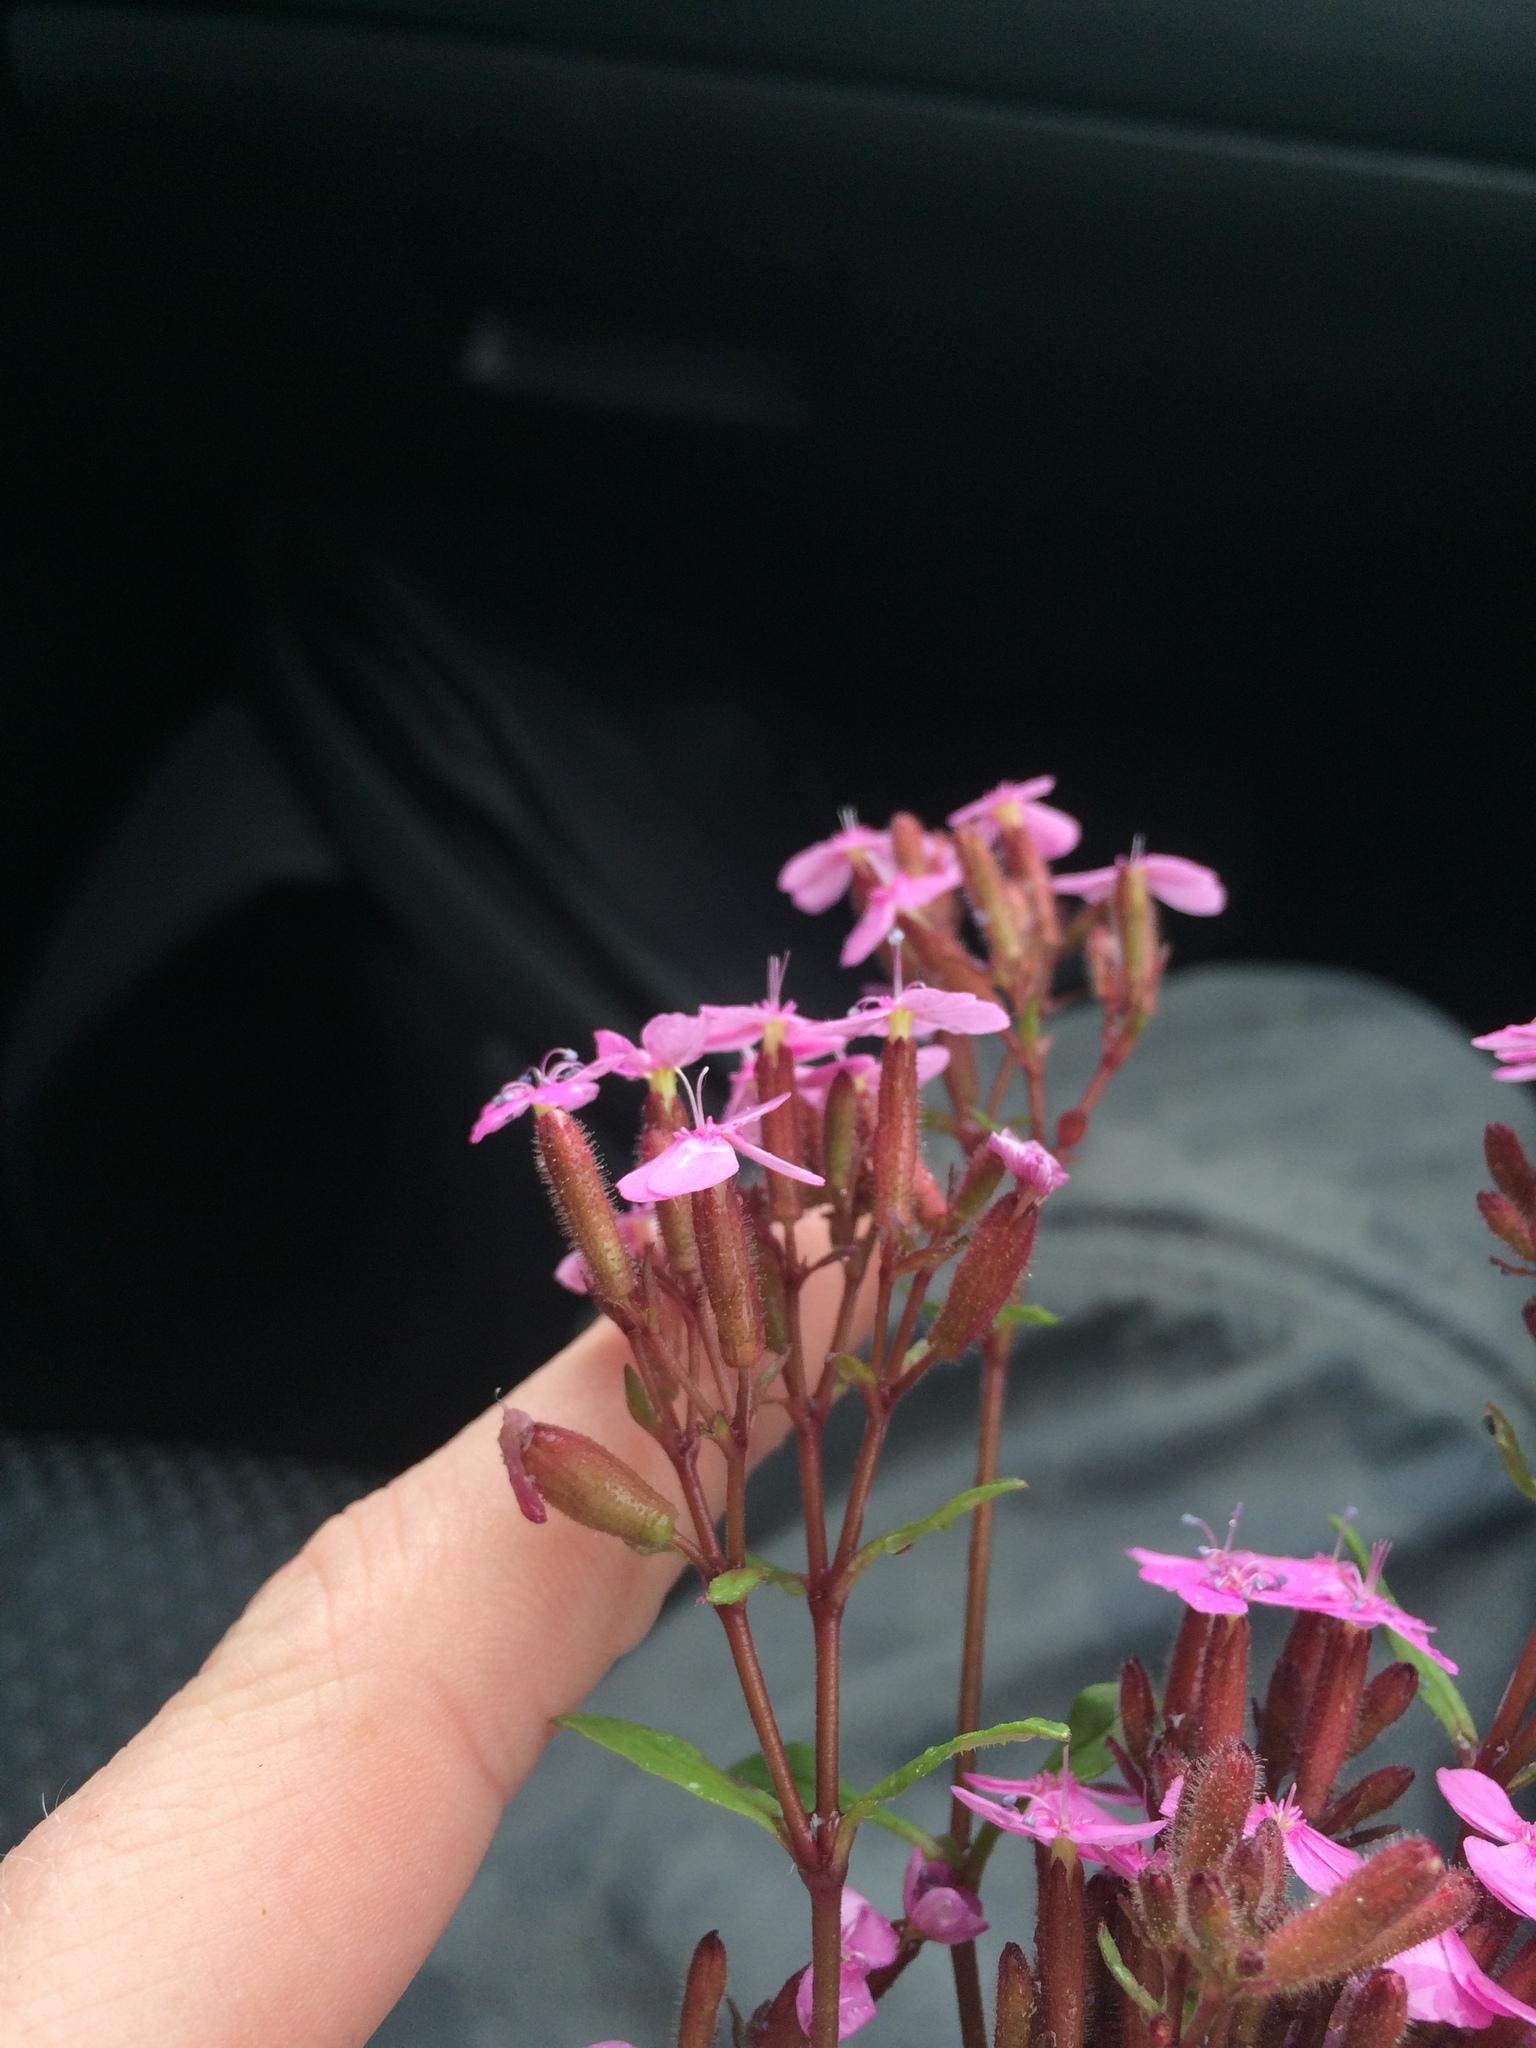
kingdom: Plantae
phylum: Tracheophyta
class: Magnoliopsida
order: Caryophyllales
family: Caryophyllaceae
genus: Saponaria
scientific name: Saponaria ocymoides
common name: Rock soapwort
